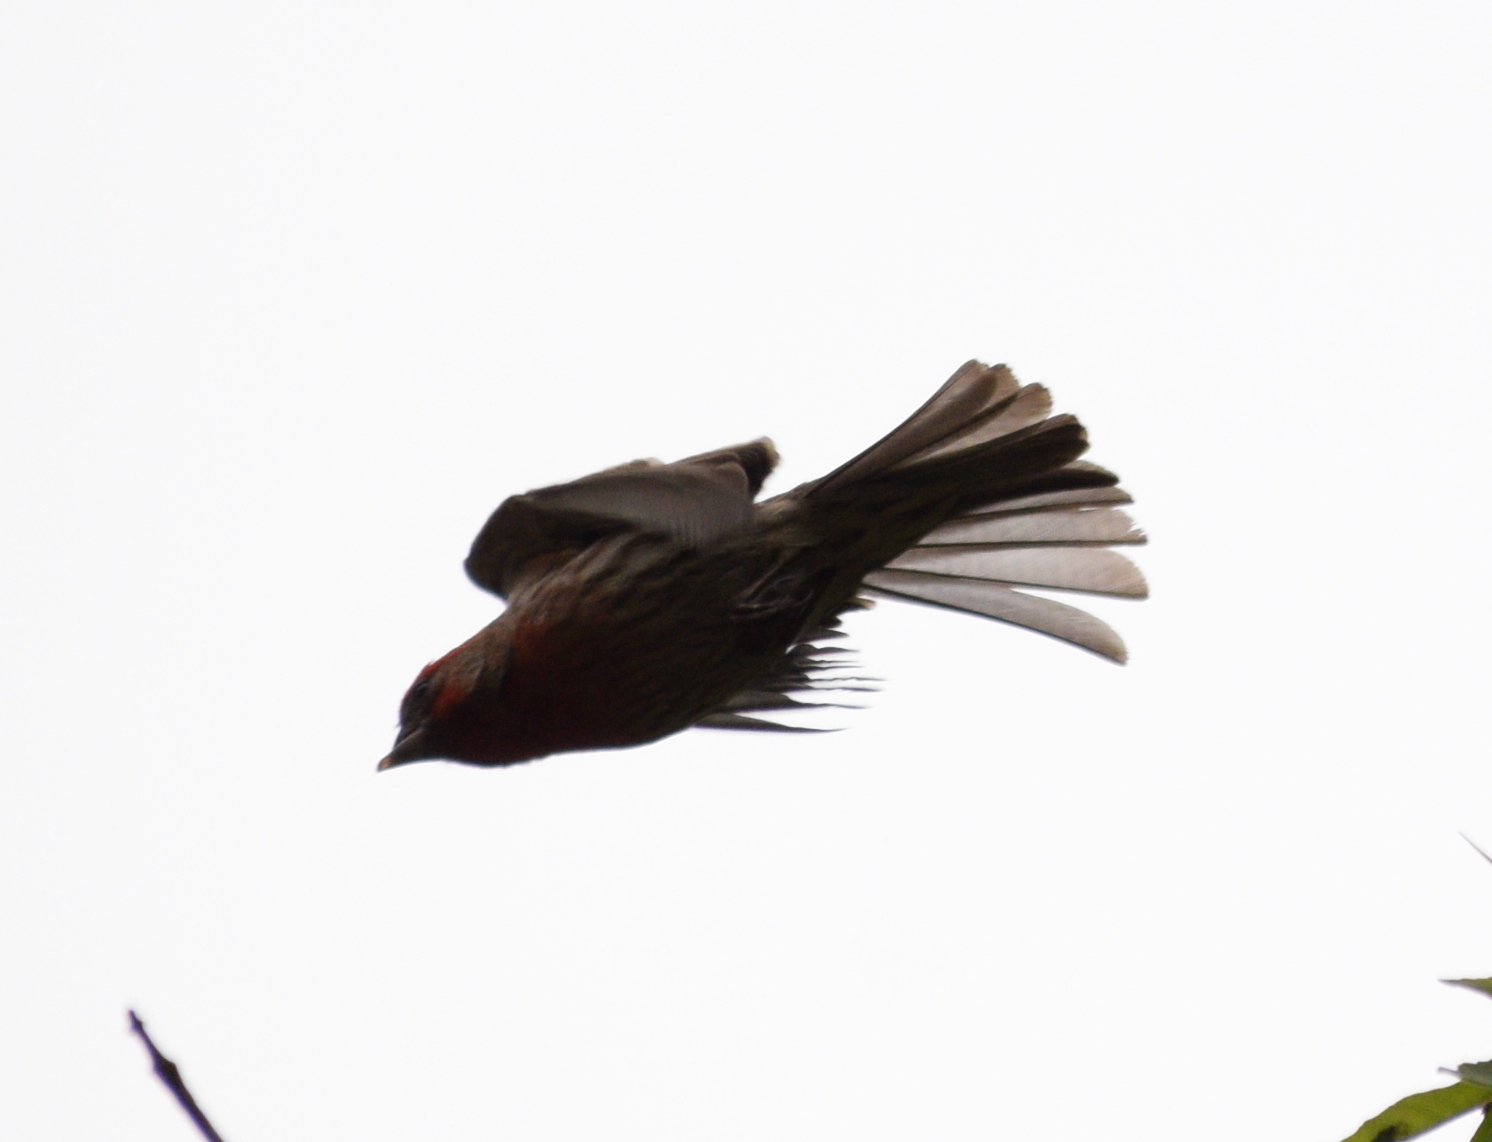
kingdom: Animalia
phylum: Chordata
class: Aves
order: Passeriformes
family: Fringillidae
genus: Haemorhous
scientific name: Haemorhous mexicanus
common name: House finch
